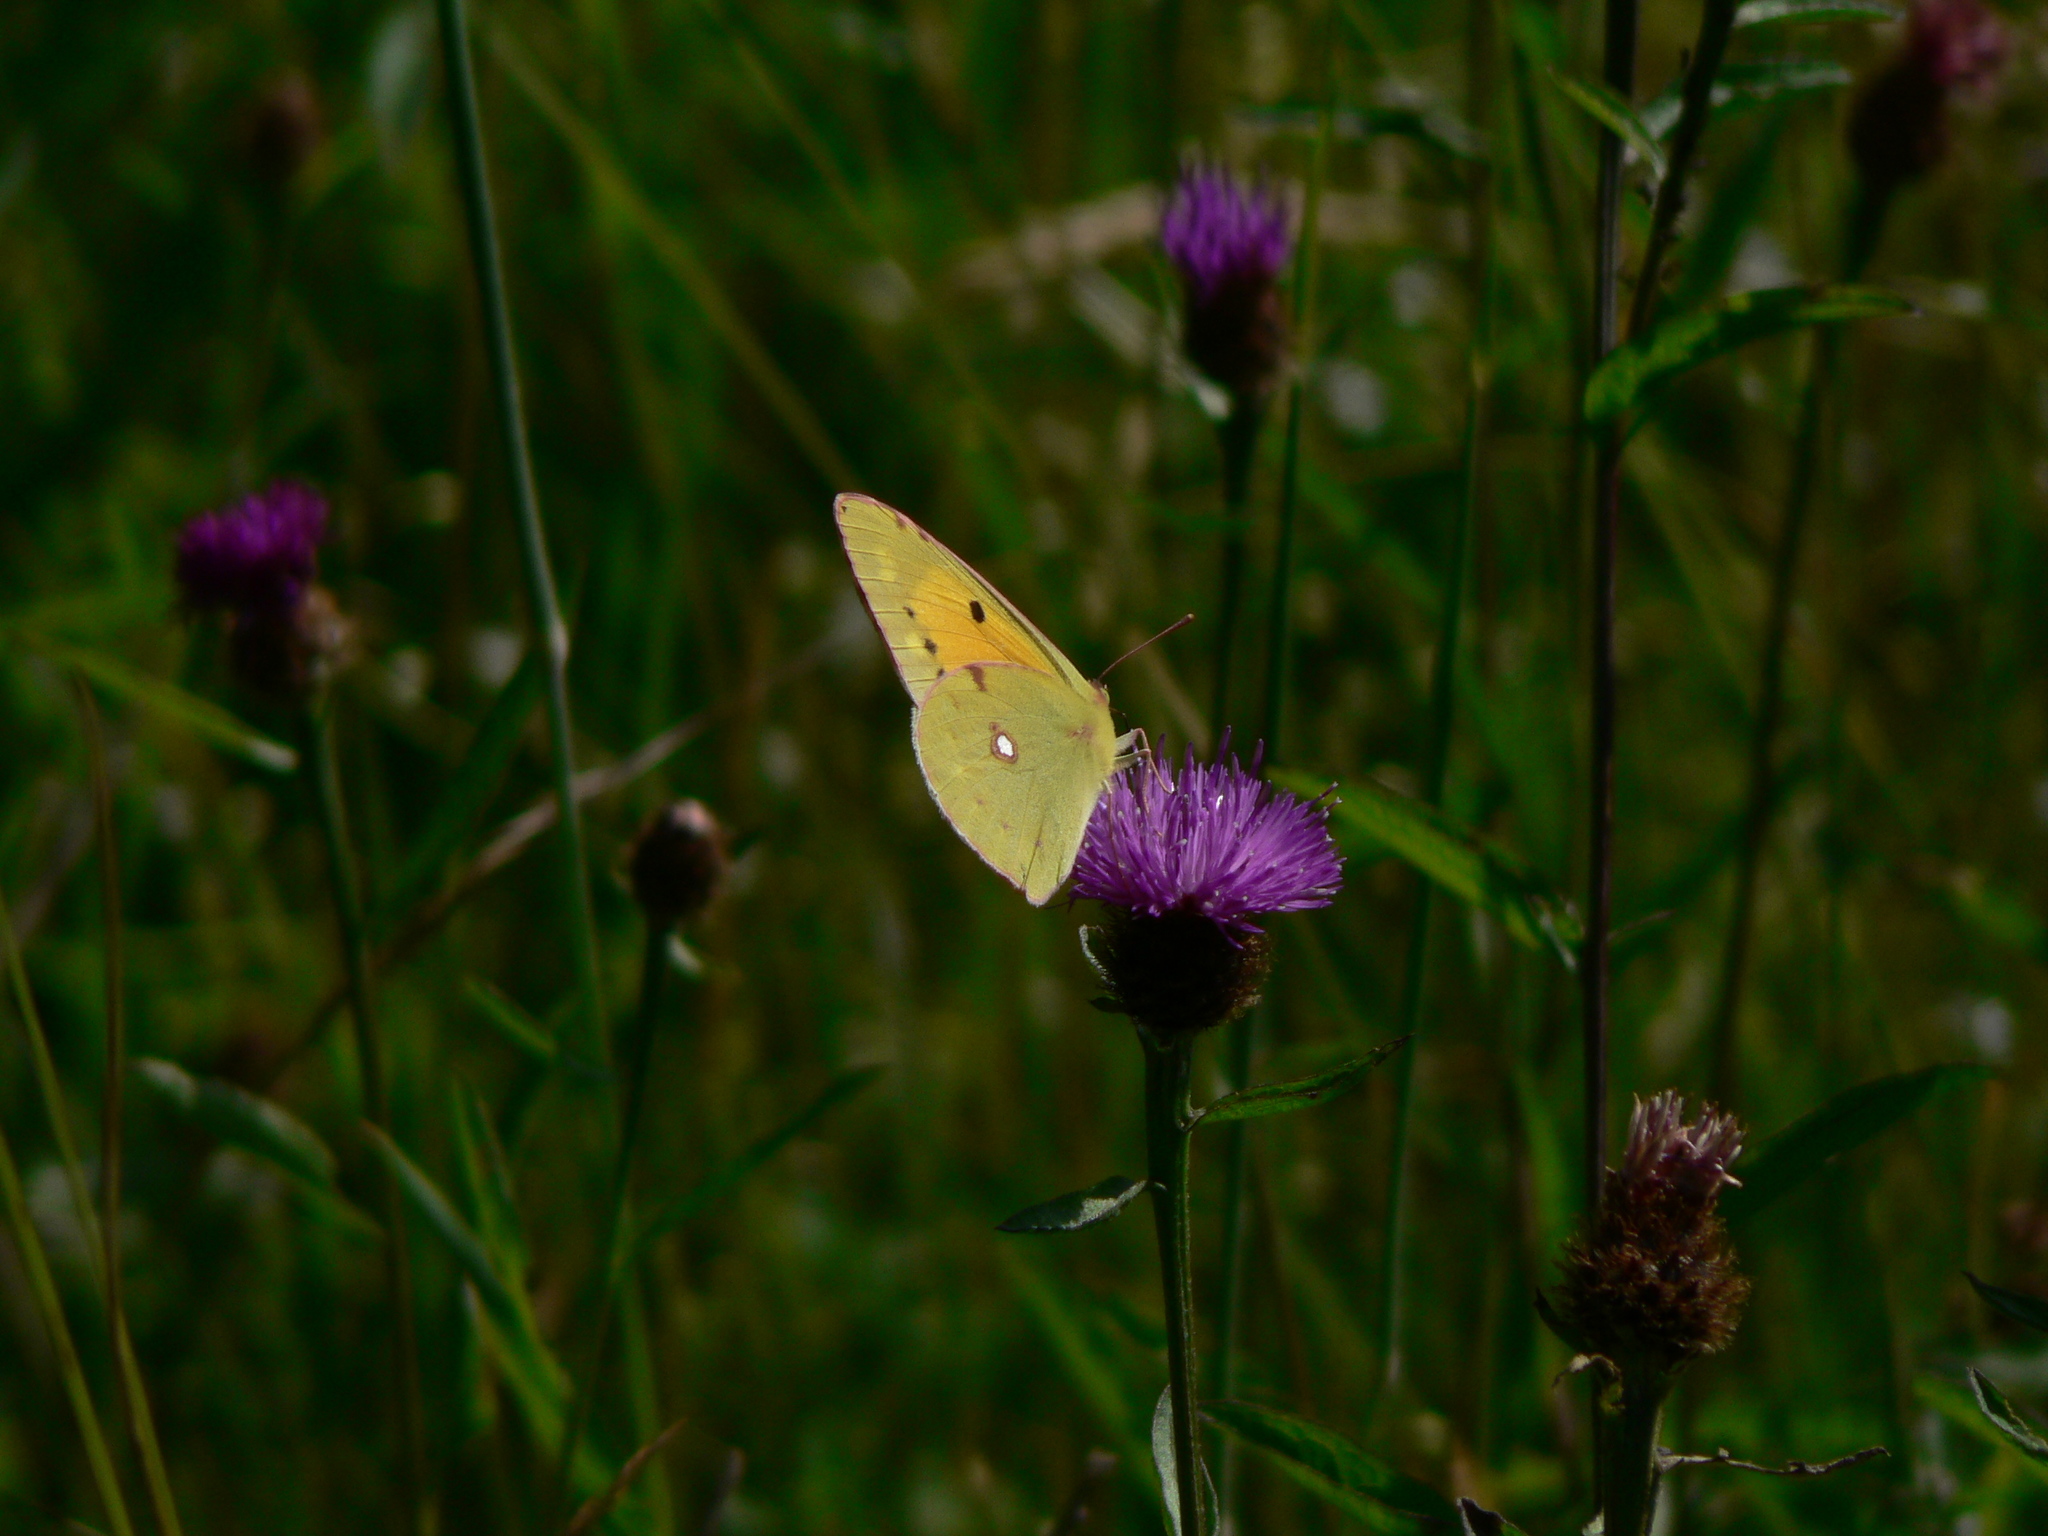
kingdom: Animalia
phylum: Arthropoda
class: Insecta
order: Lepidoptera
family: Pieridae
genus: Colias
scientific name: Colias croceus
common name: Clouded yellow
